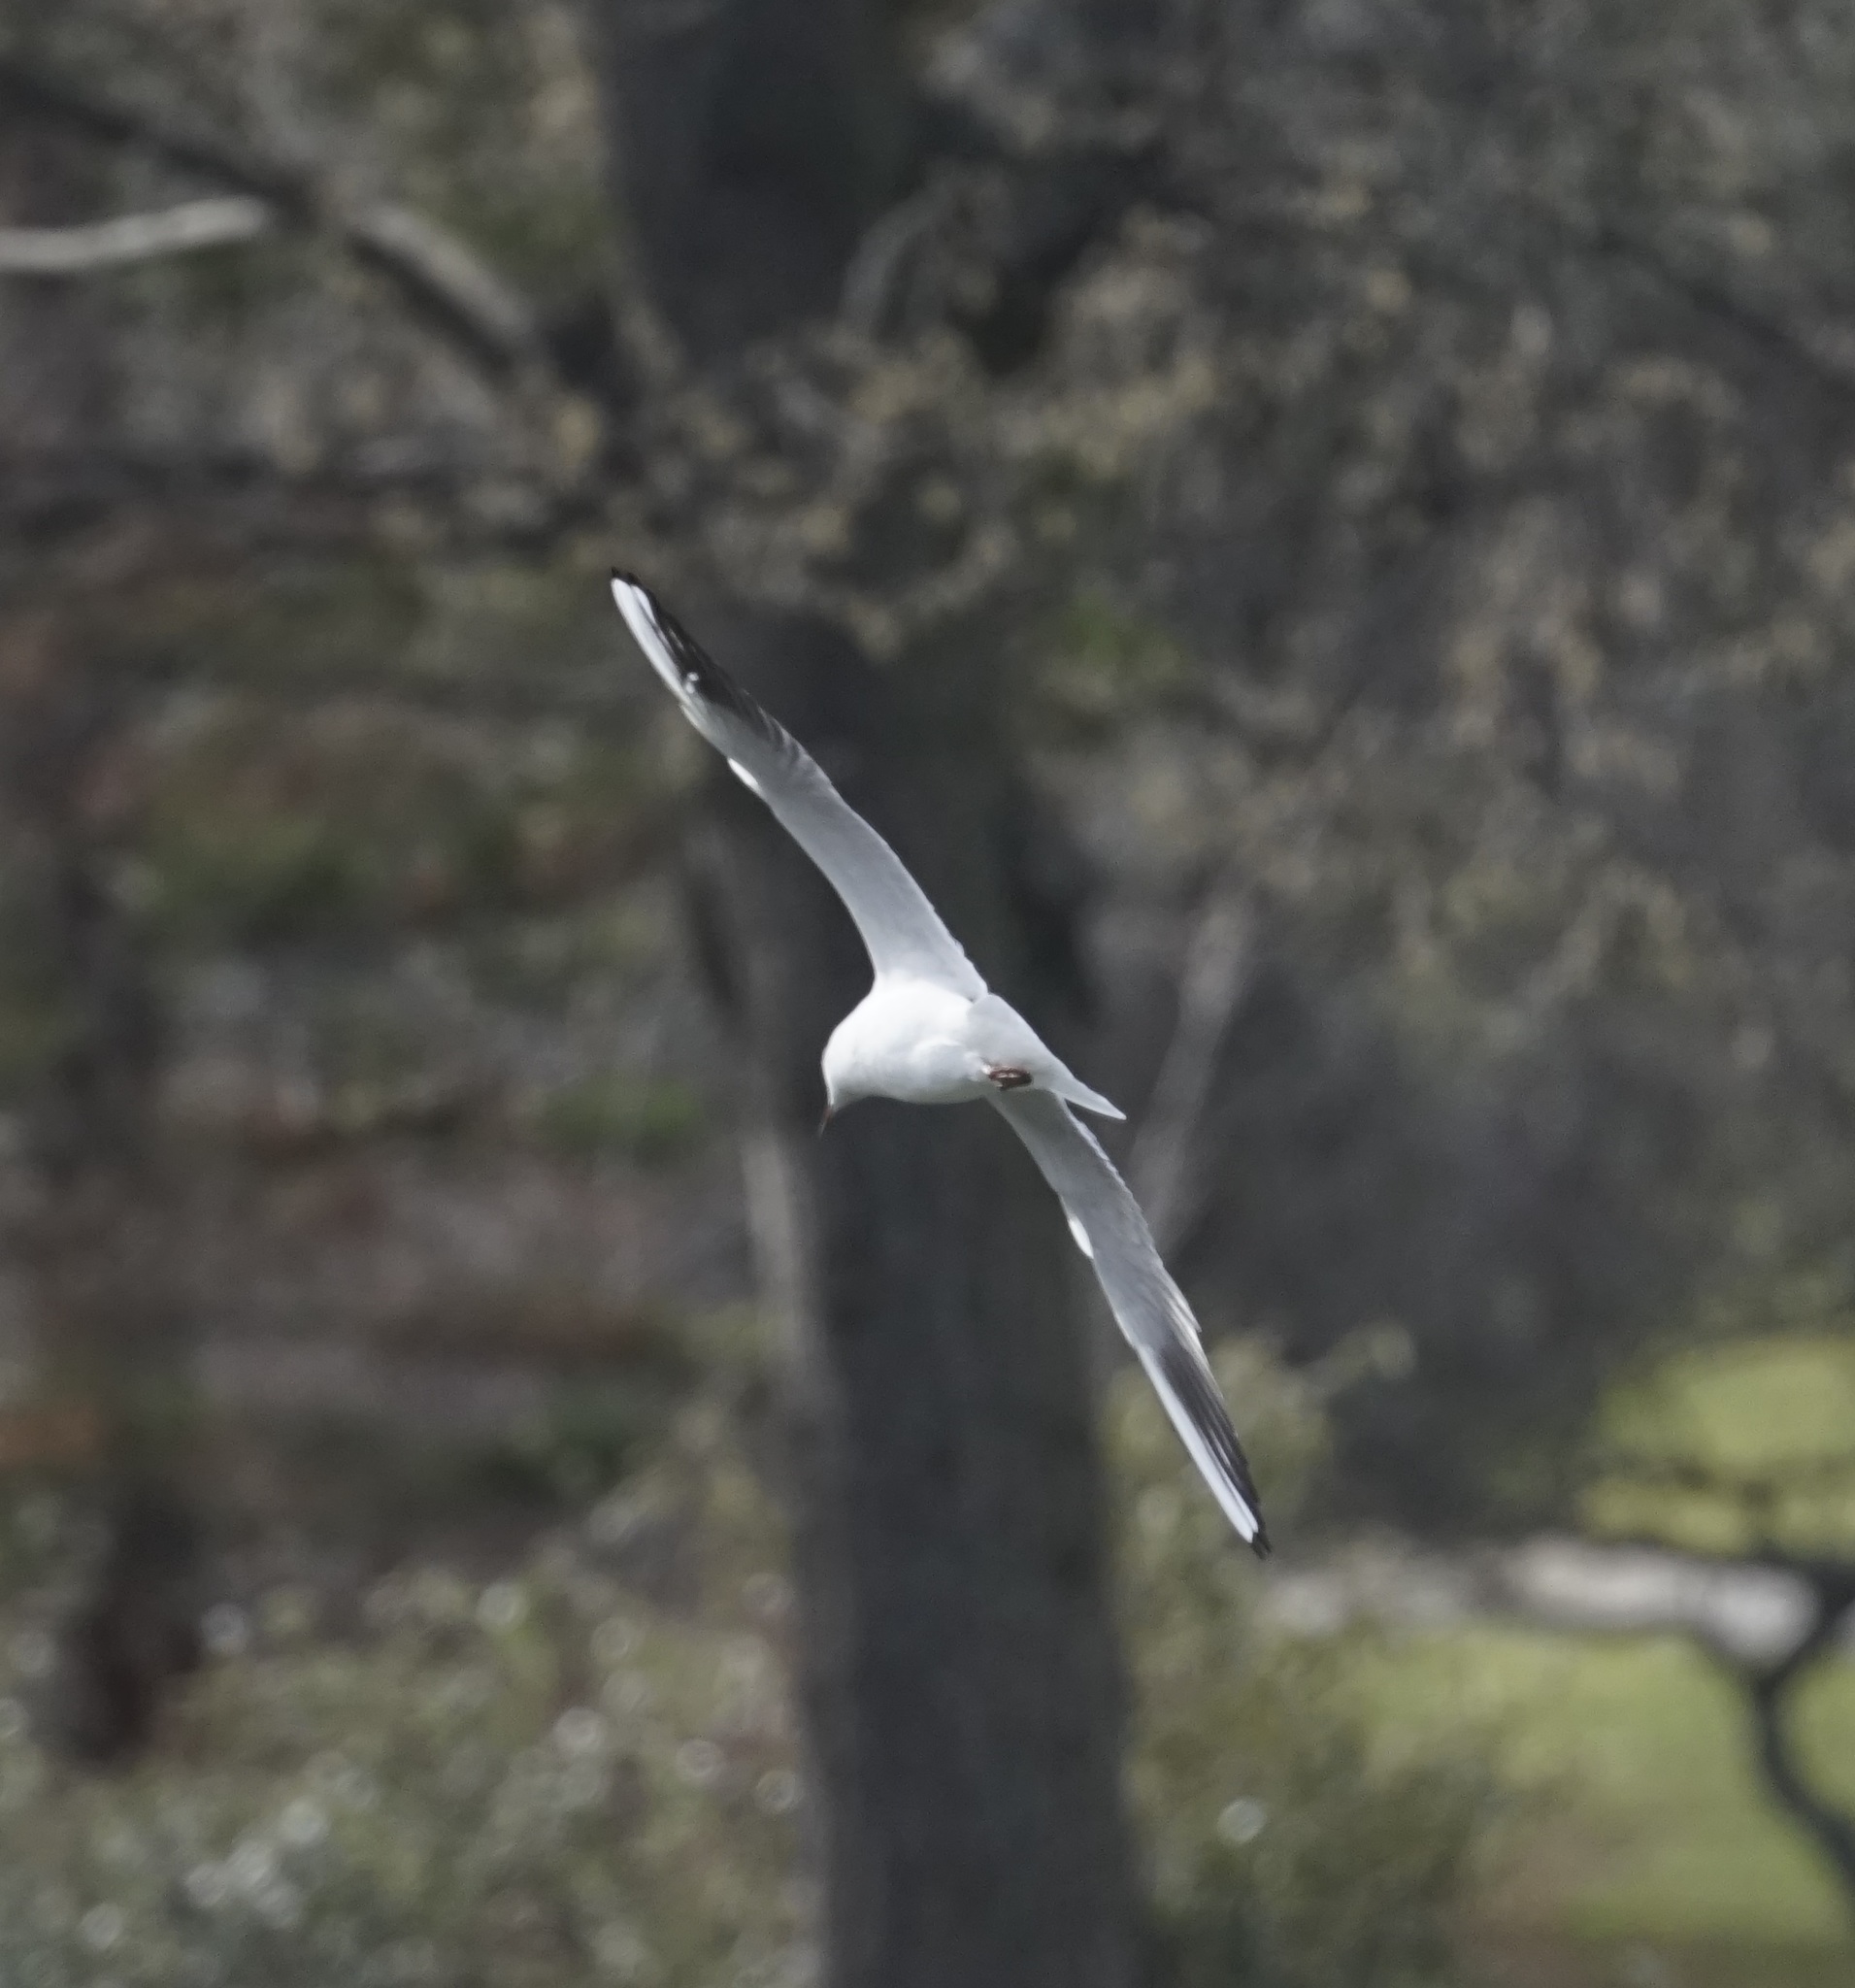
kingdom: Animalia
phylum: Chordata
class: Aves
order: Charadriiformes
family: Laridae
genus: Chroicocephalus
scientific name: Chroicocephalus ridibundus
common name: Black-headed gull
